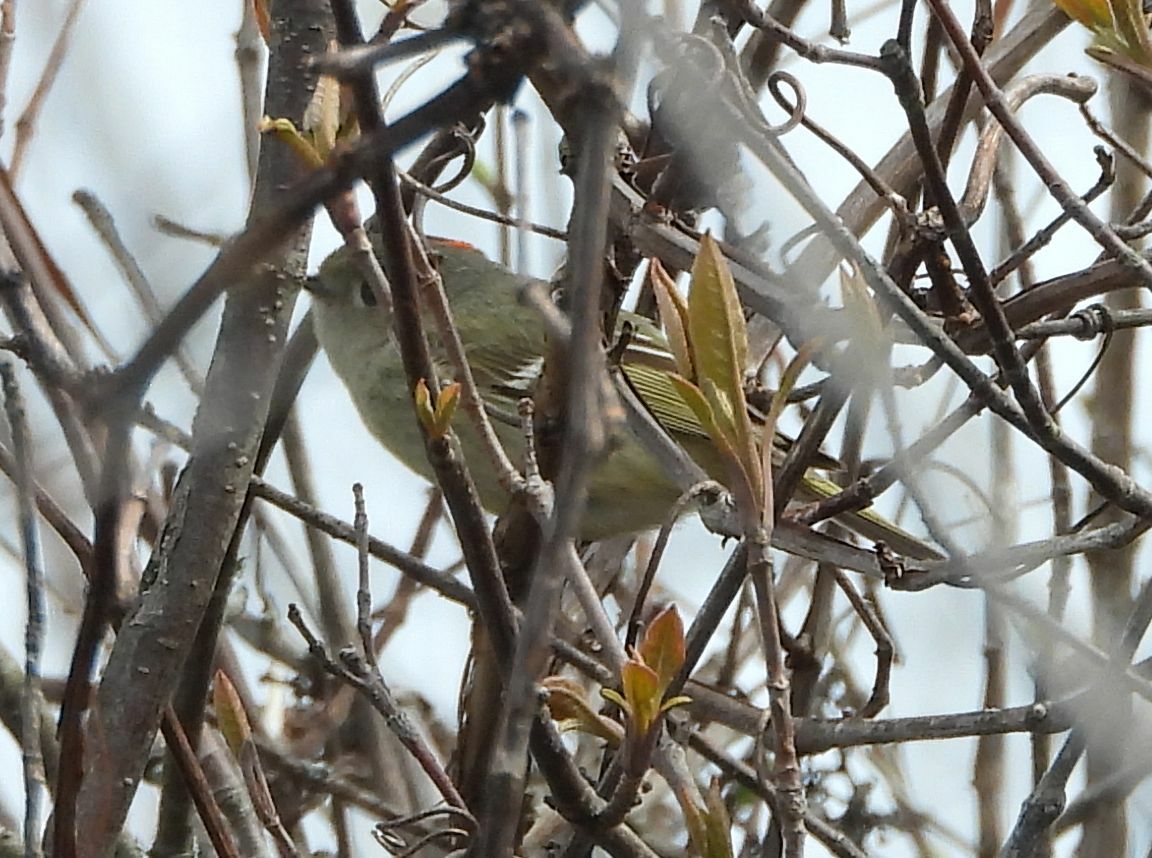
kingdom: Animalia
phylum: Chordata
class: Aves
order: Passeriformes
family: Regulidae
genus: Regulus
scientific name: Regulus calendula
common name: Ruby-crowned kinglet
